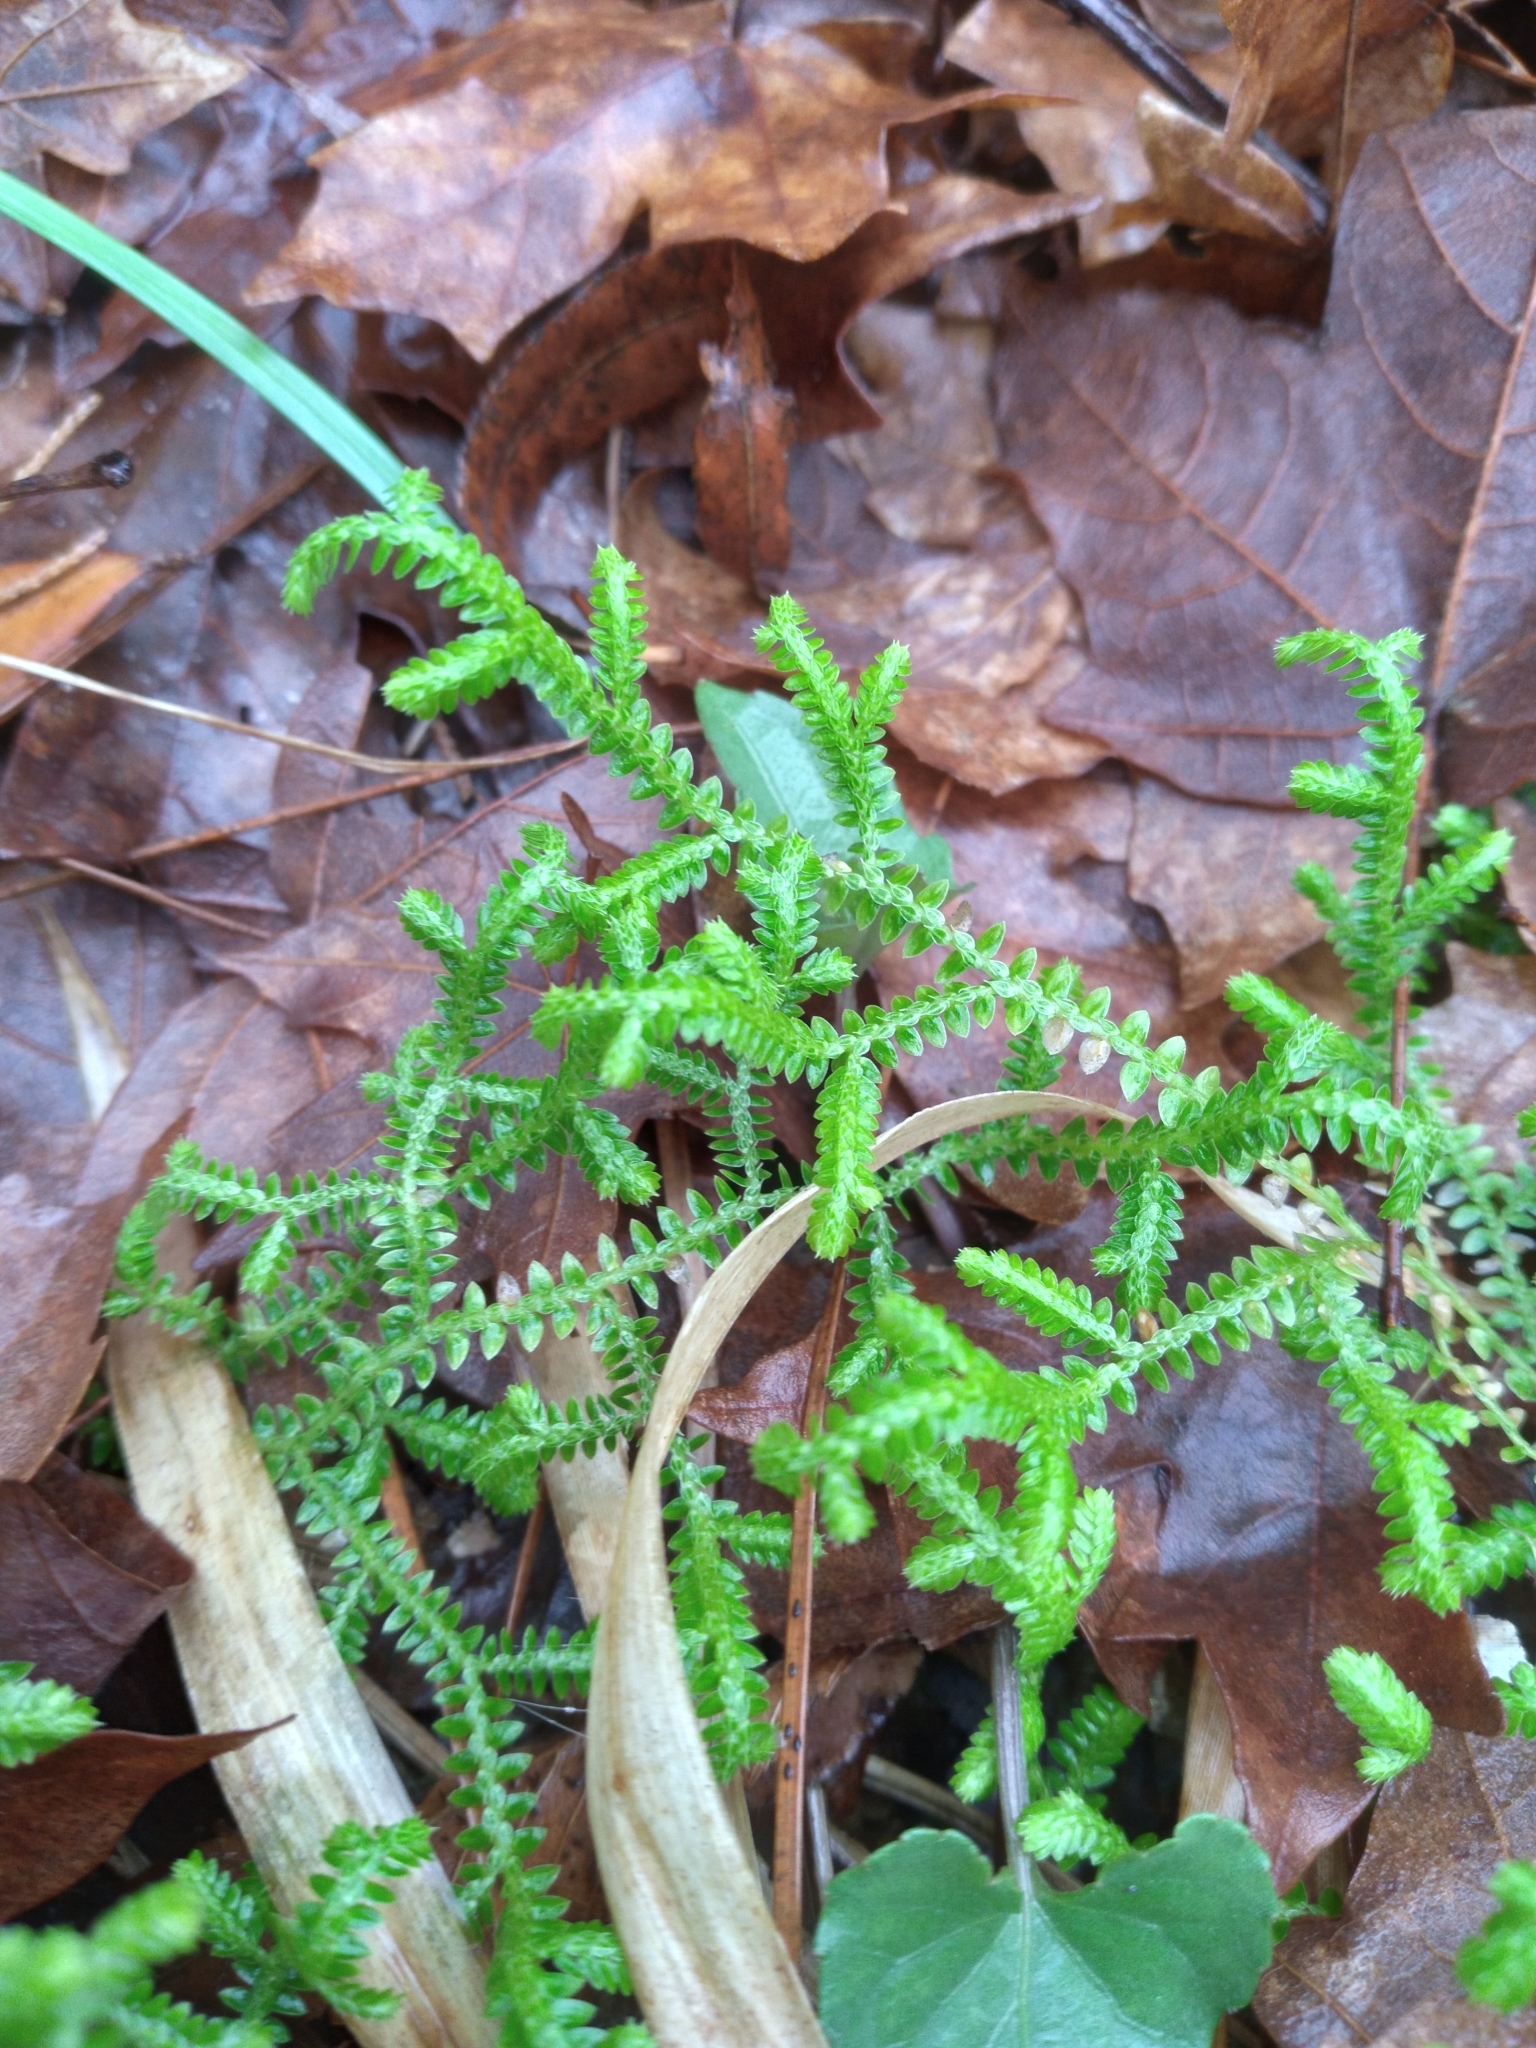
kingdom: Plantae
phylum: Tracheophyta
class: Lycopodiopsida
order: Selaginellales
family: Selaginellaceae
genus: Selaginella
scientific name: Selaginella ludoviciana
